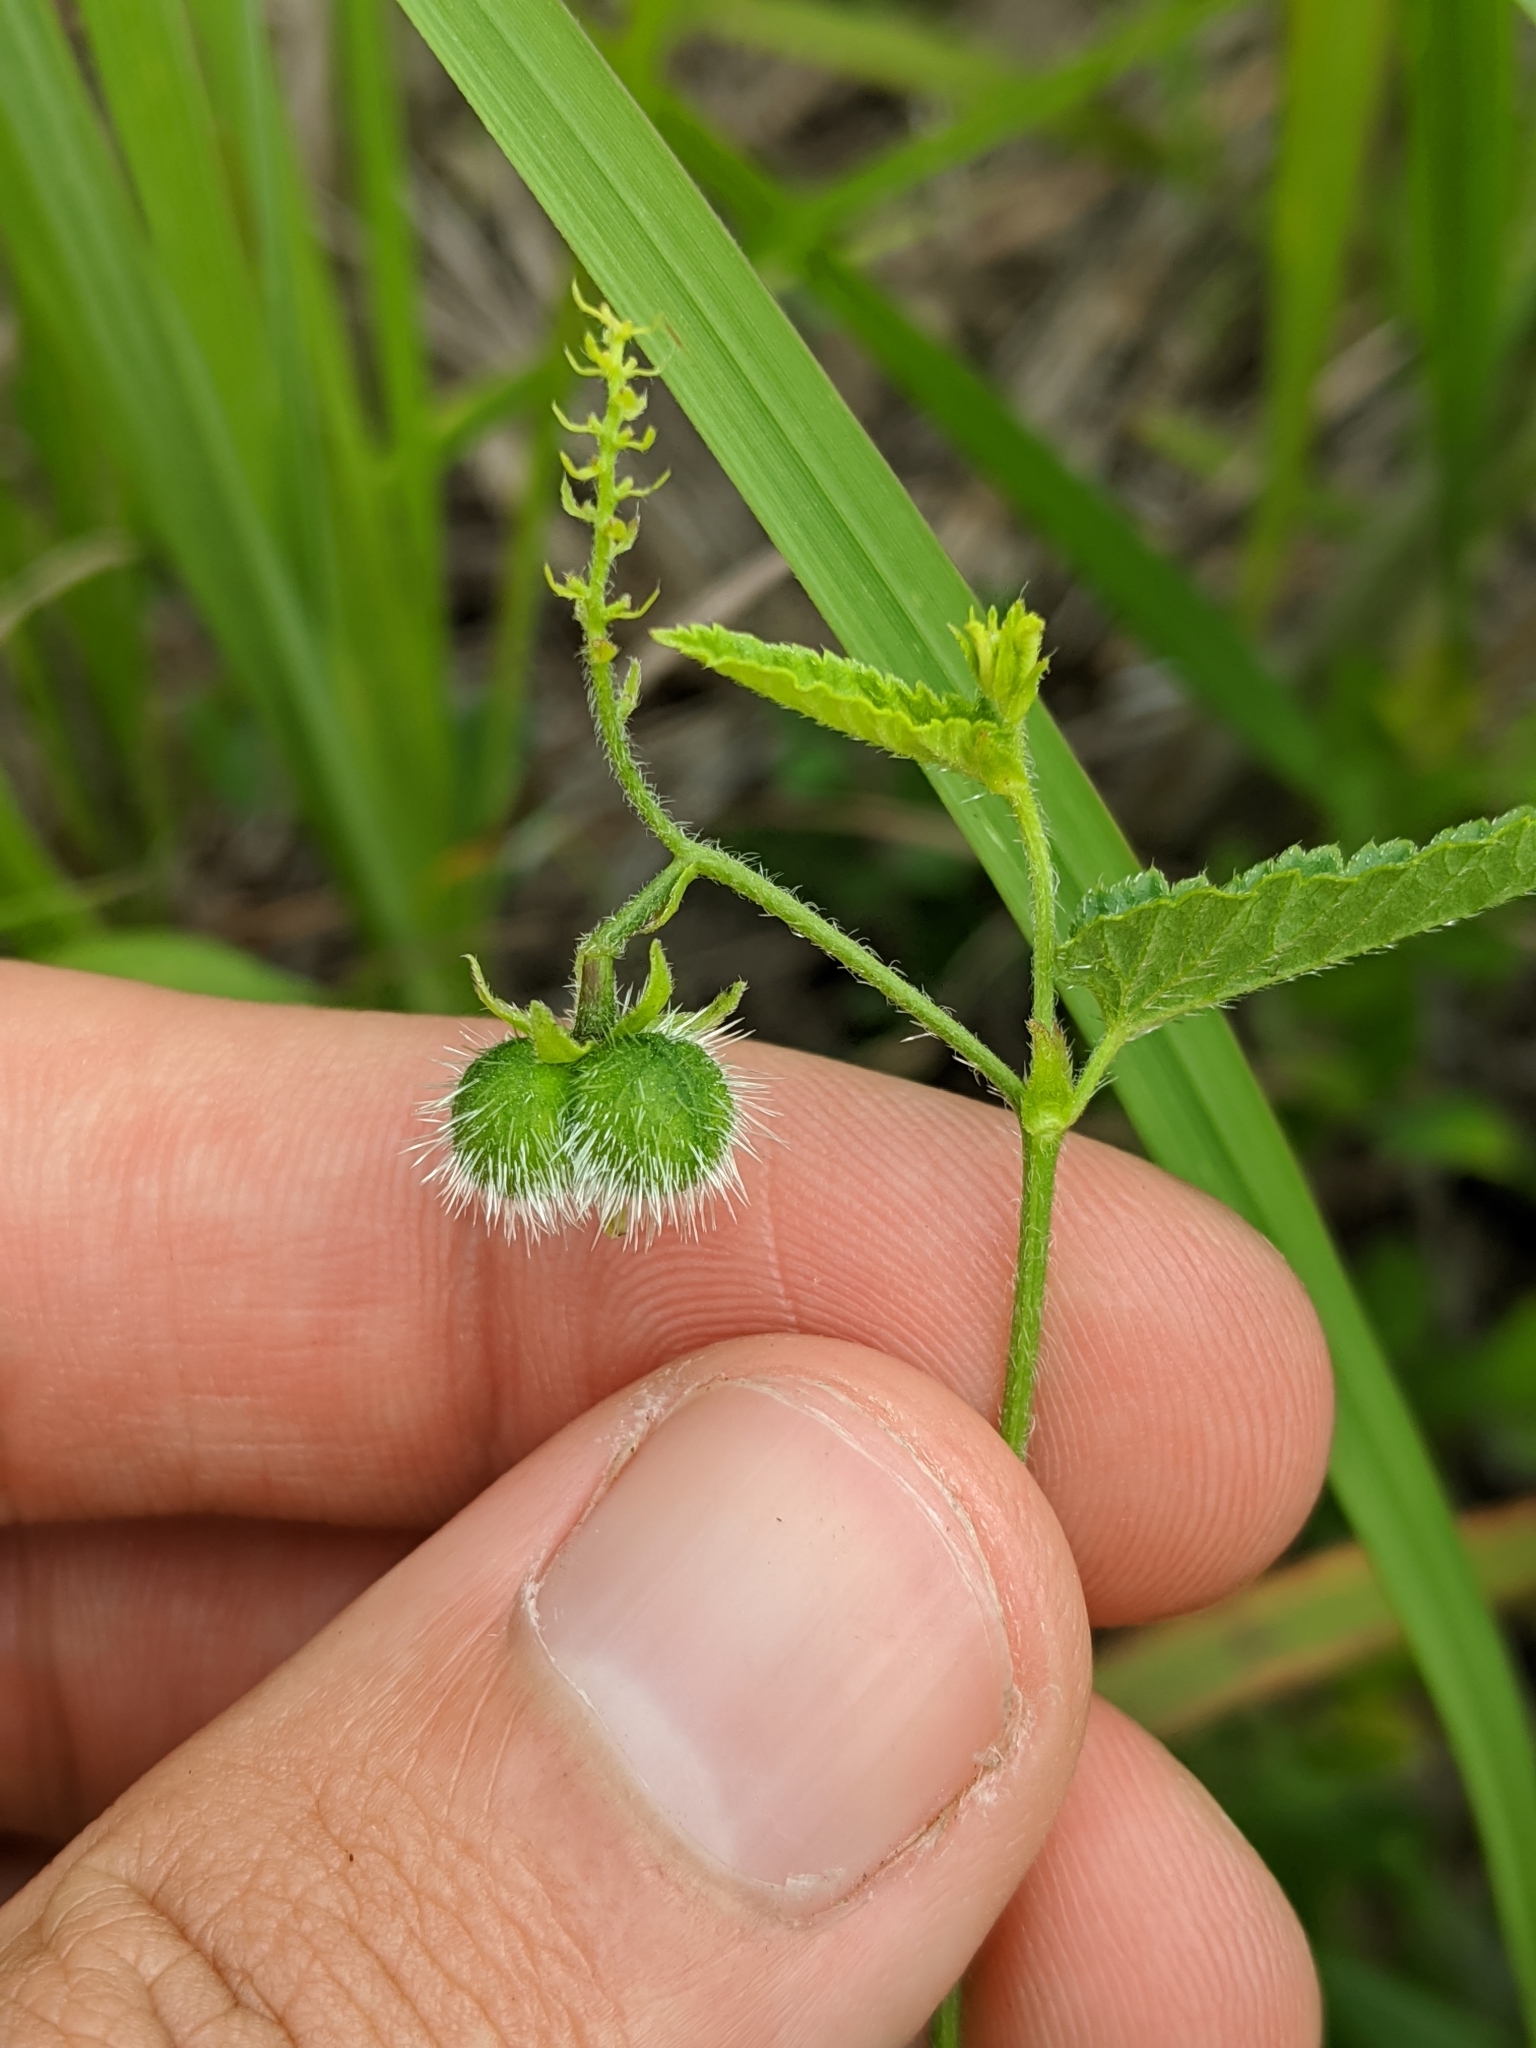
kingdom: Plantae
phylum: Tracheophyta
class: Magnoliopsida
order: Malpighiales
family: Euphorbiaceae
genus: Tragia
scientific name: Tragia betonicifolia
